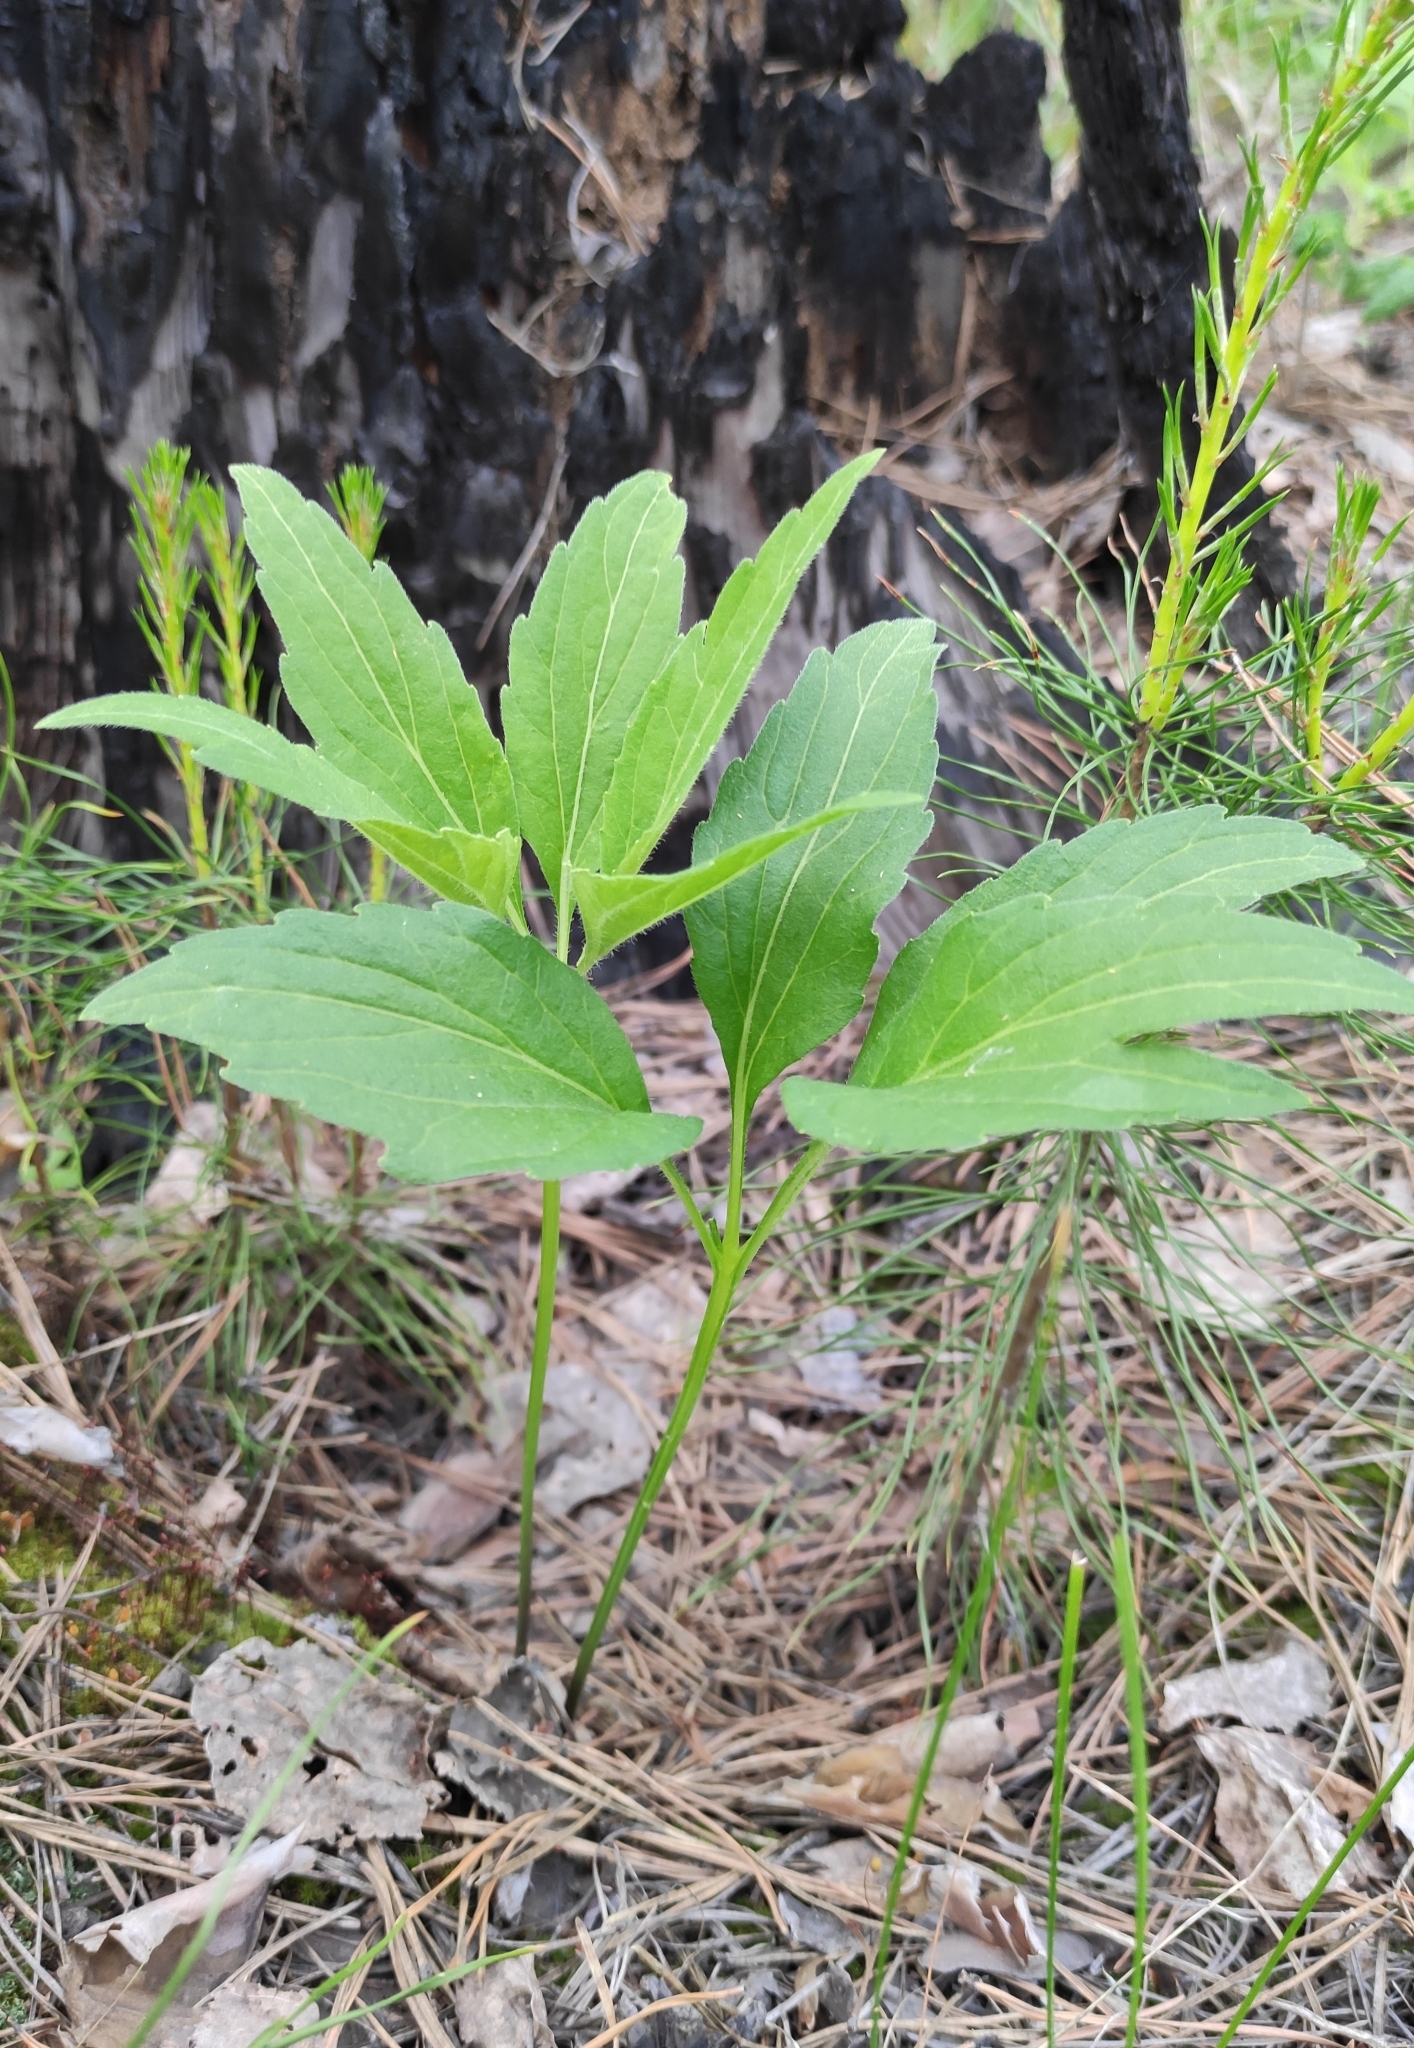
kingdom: Plantae
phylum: Tracheophyta
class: Magnoliopsida
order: Malpighiales
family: Violaceae
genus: Viola
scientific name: Viola dactyloides
